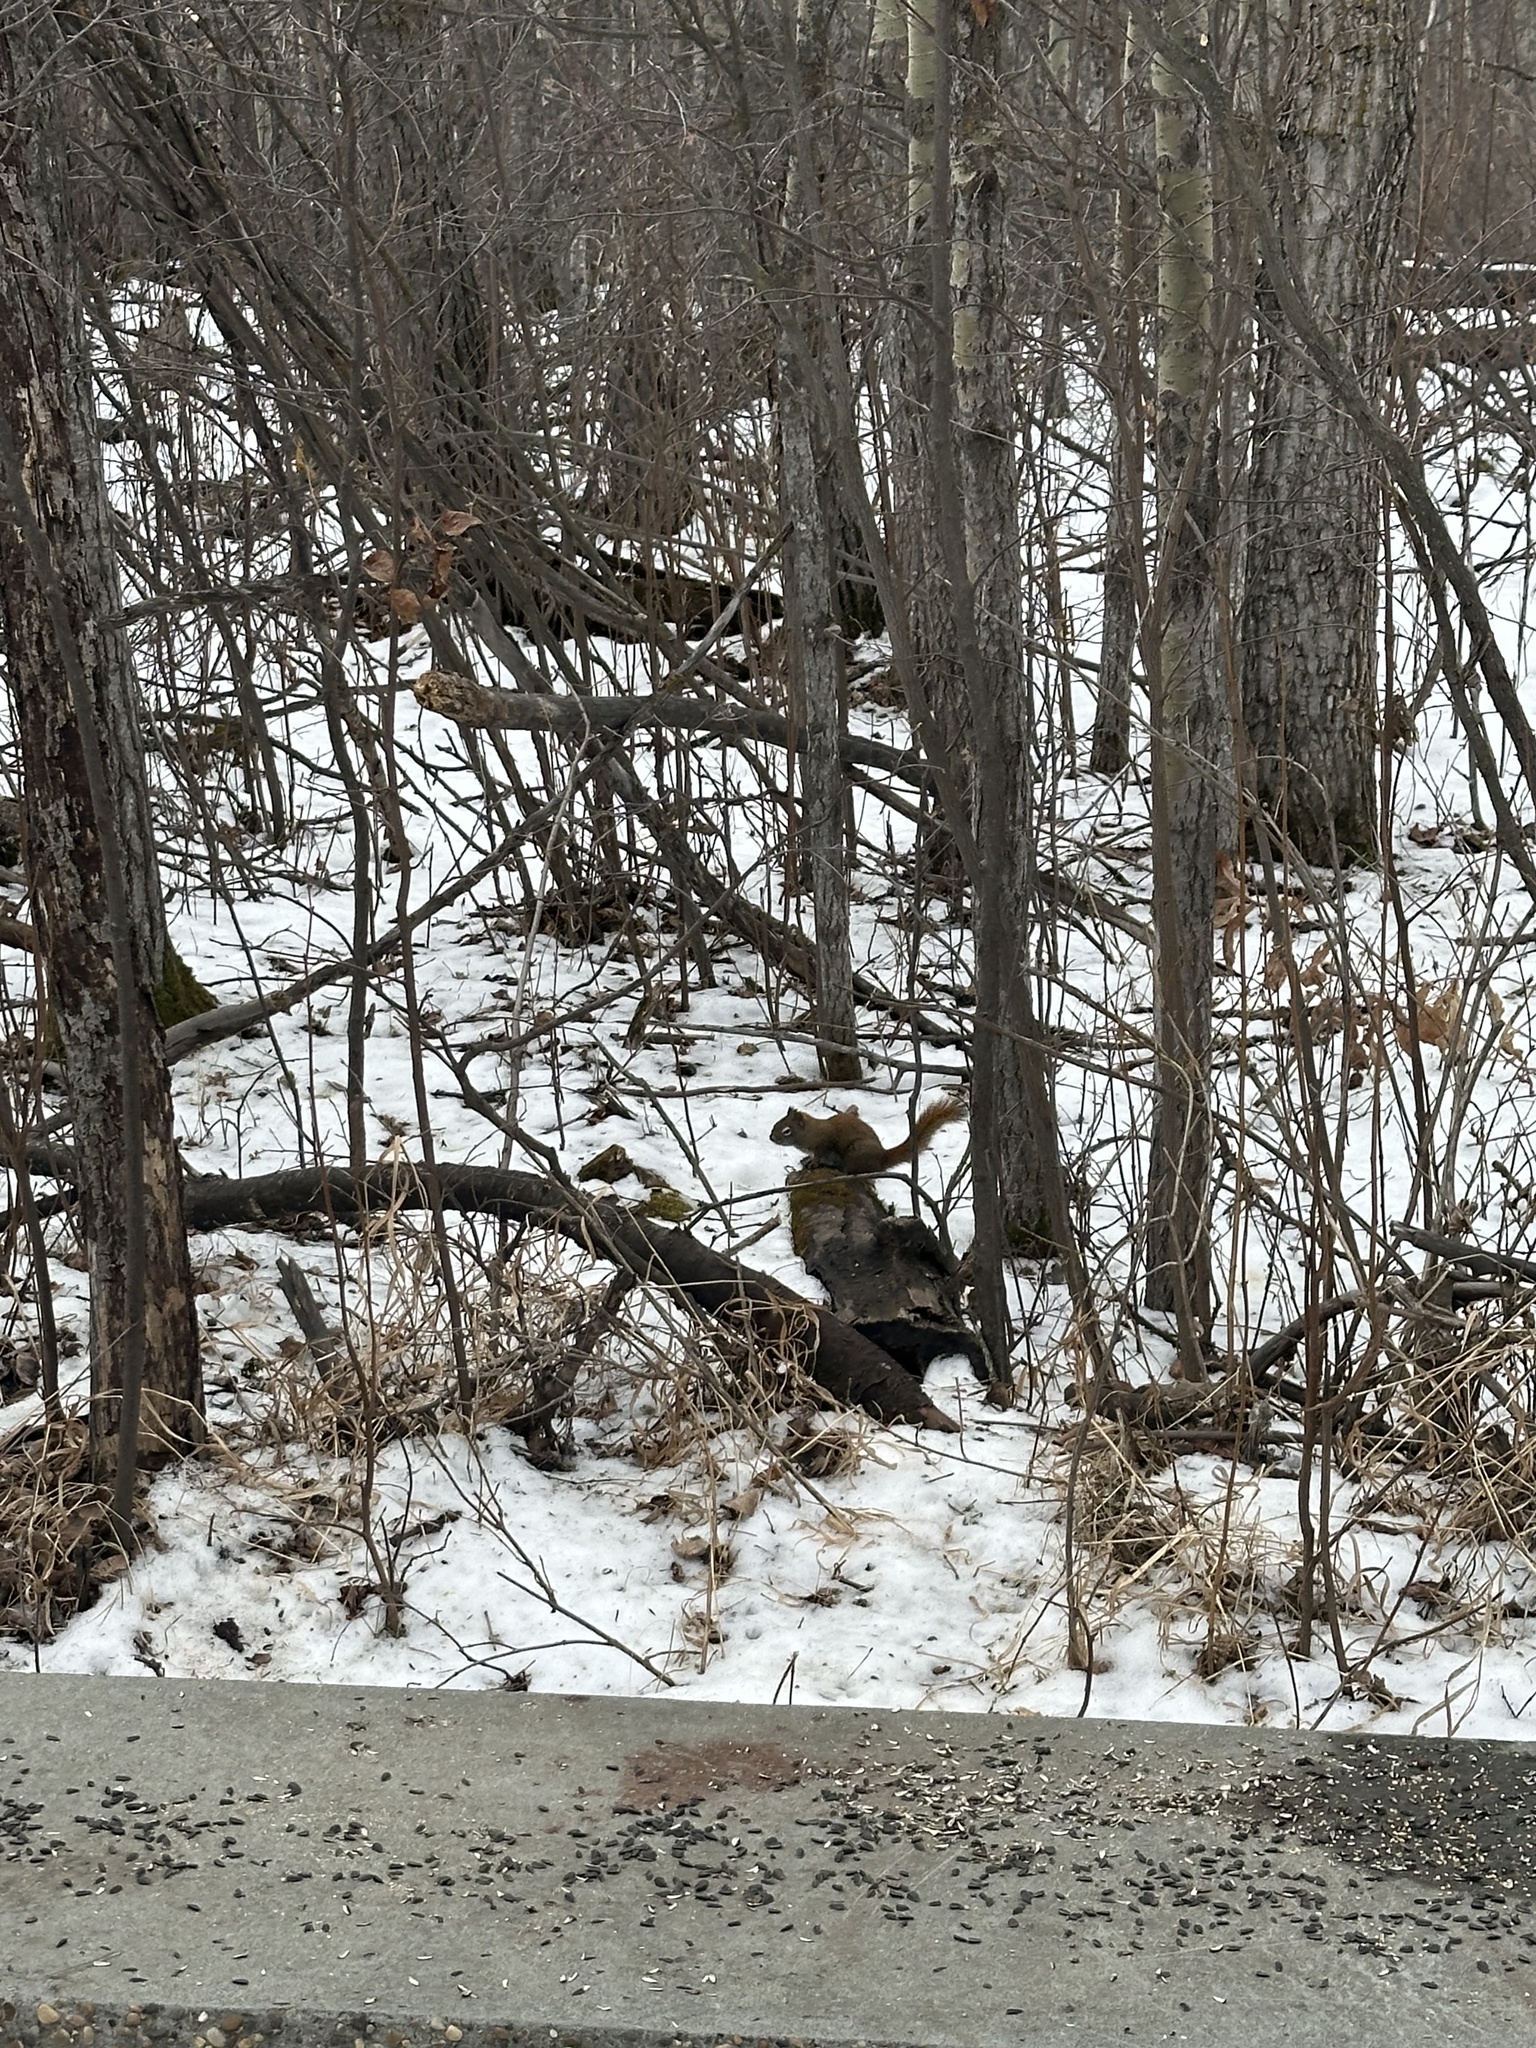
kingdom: Animalia
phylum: Chordata
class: Mammalia
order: Rodentia
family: Sciuridae
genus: Tamiasciurus
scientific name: Tamiasciurus hudsonicus
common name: Red squirrel
